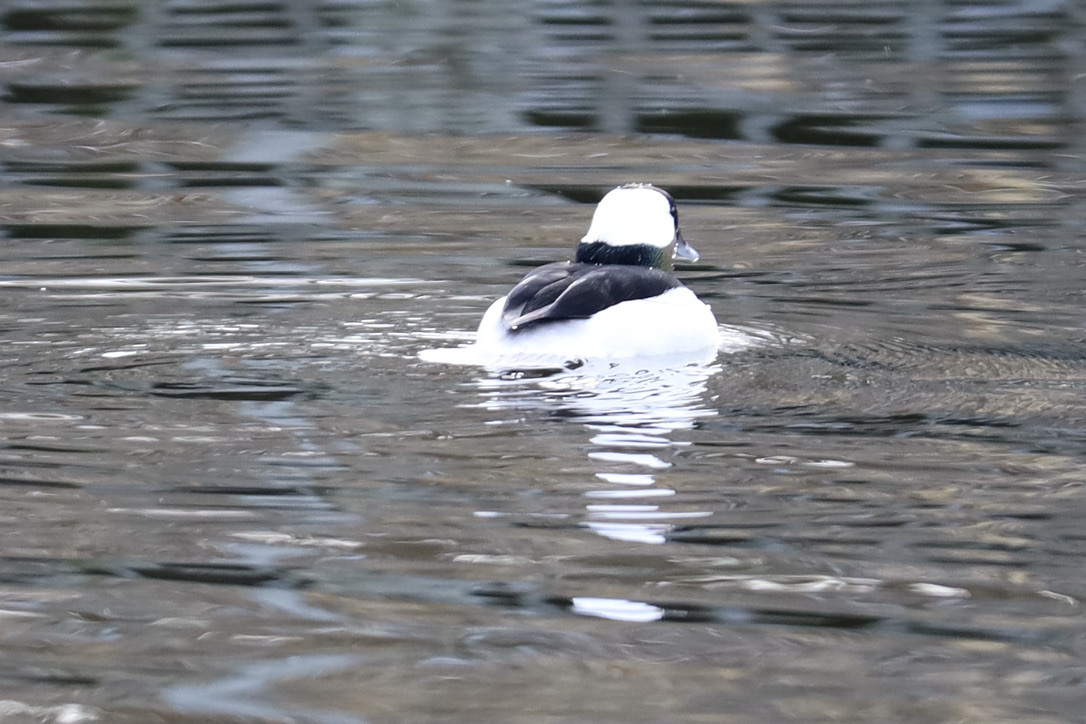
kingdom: Animalia
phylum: Chordata
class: Aves
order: Anseriformes
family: Anatidae
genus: Bucephala
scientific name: Bucephala albeola
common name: Bufflehead
